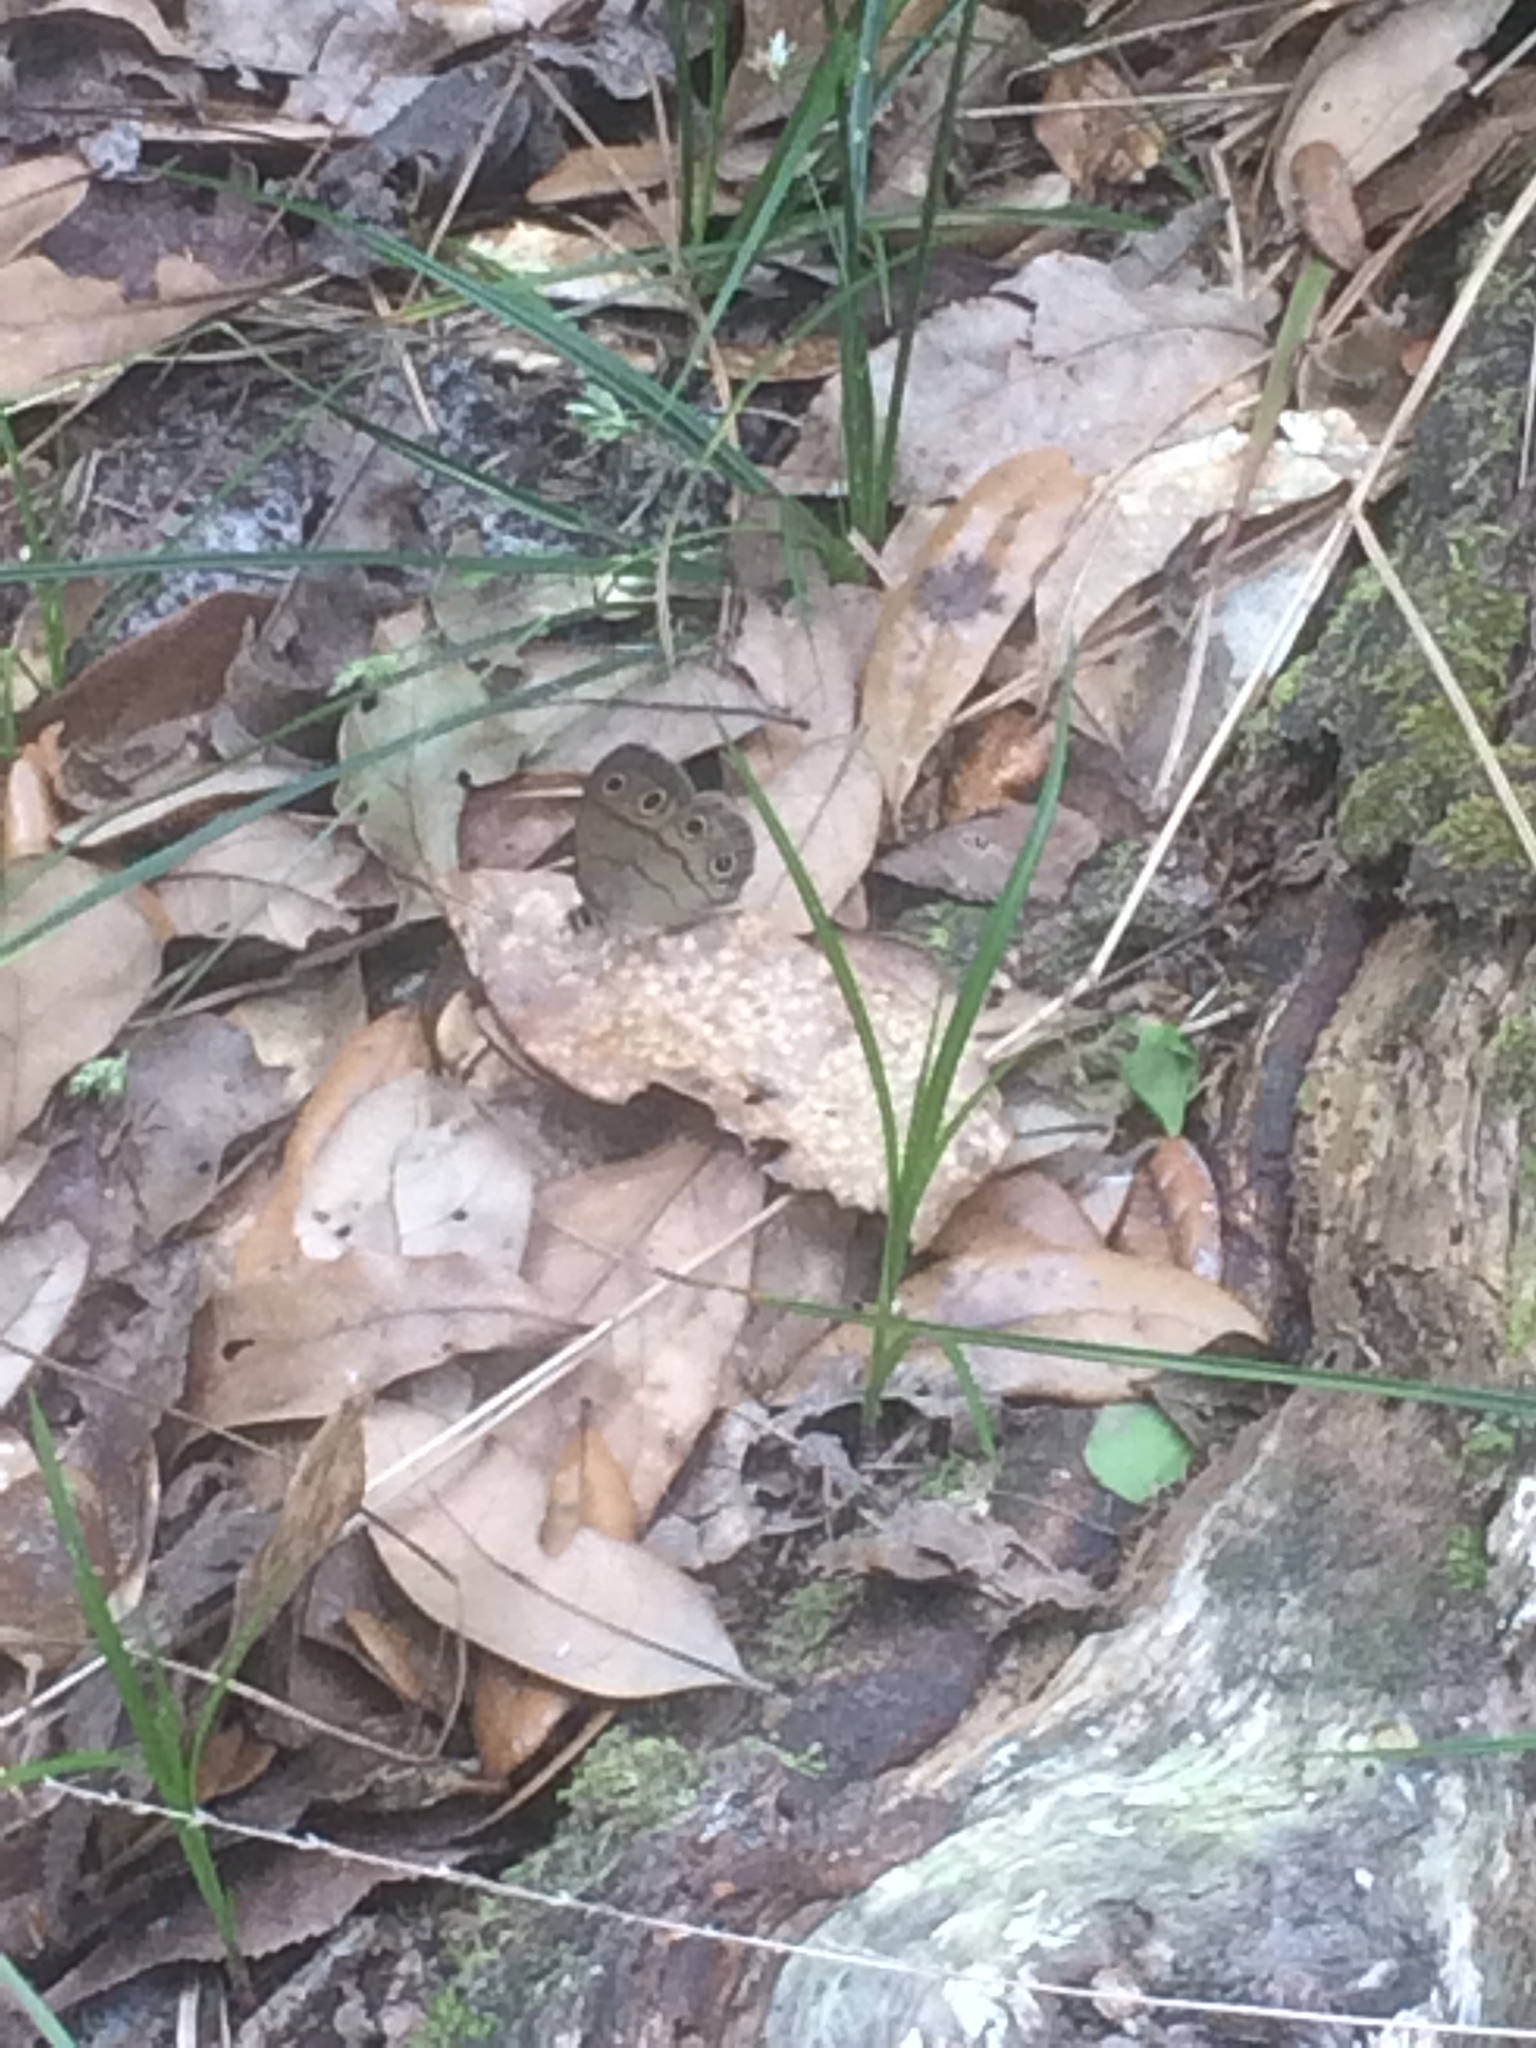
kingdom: Animalia
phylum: Arthropoda
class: Insecta
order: Lepidoptera
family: Nymphalidae
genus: Euptychia
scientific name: Euptychia cymela
